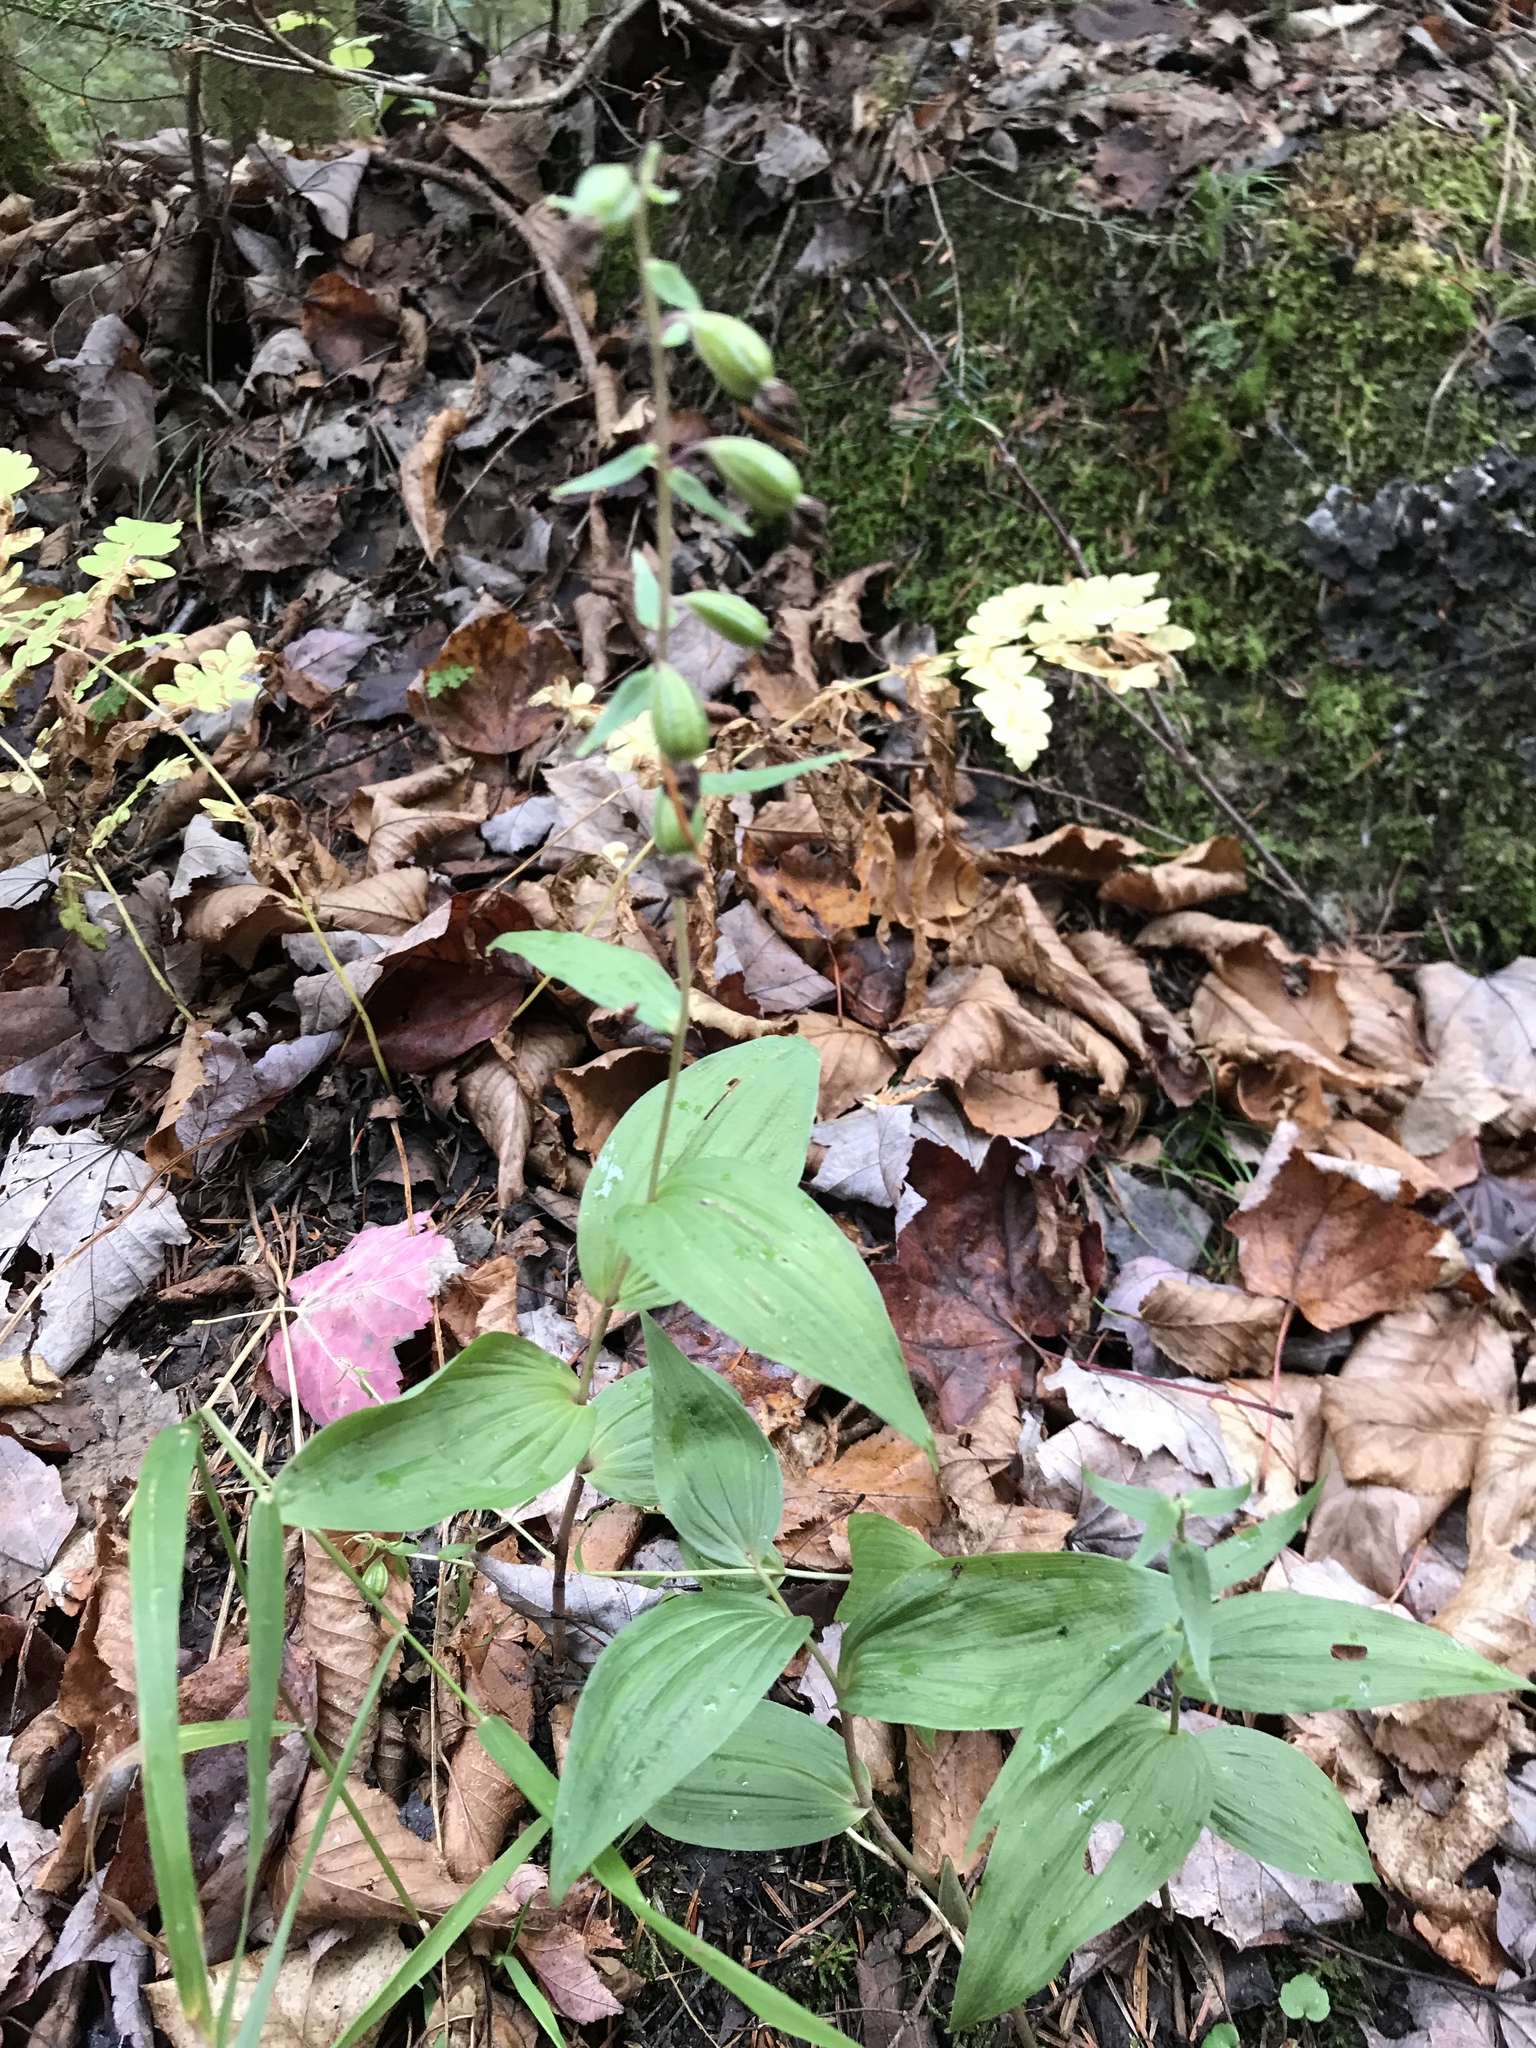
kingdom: Plantae
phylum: Tracheophyta
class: Liliopsida
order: Asparagales
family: Orchidaceae
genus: Epipactis
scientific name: Epipactis helleborine
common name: Broad-leaved helleborine
